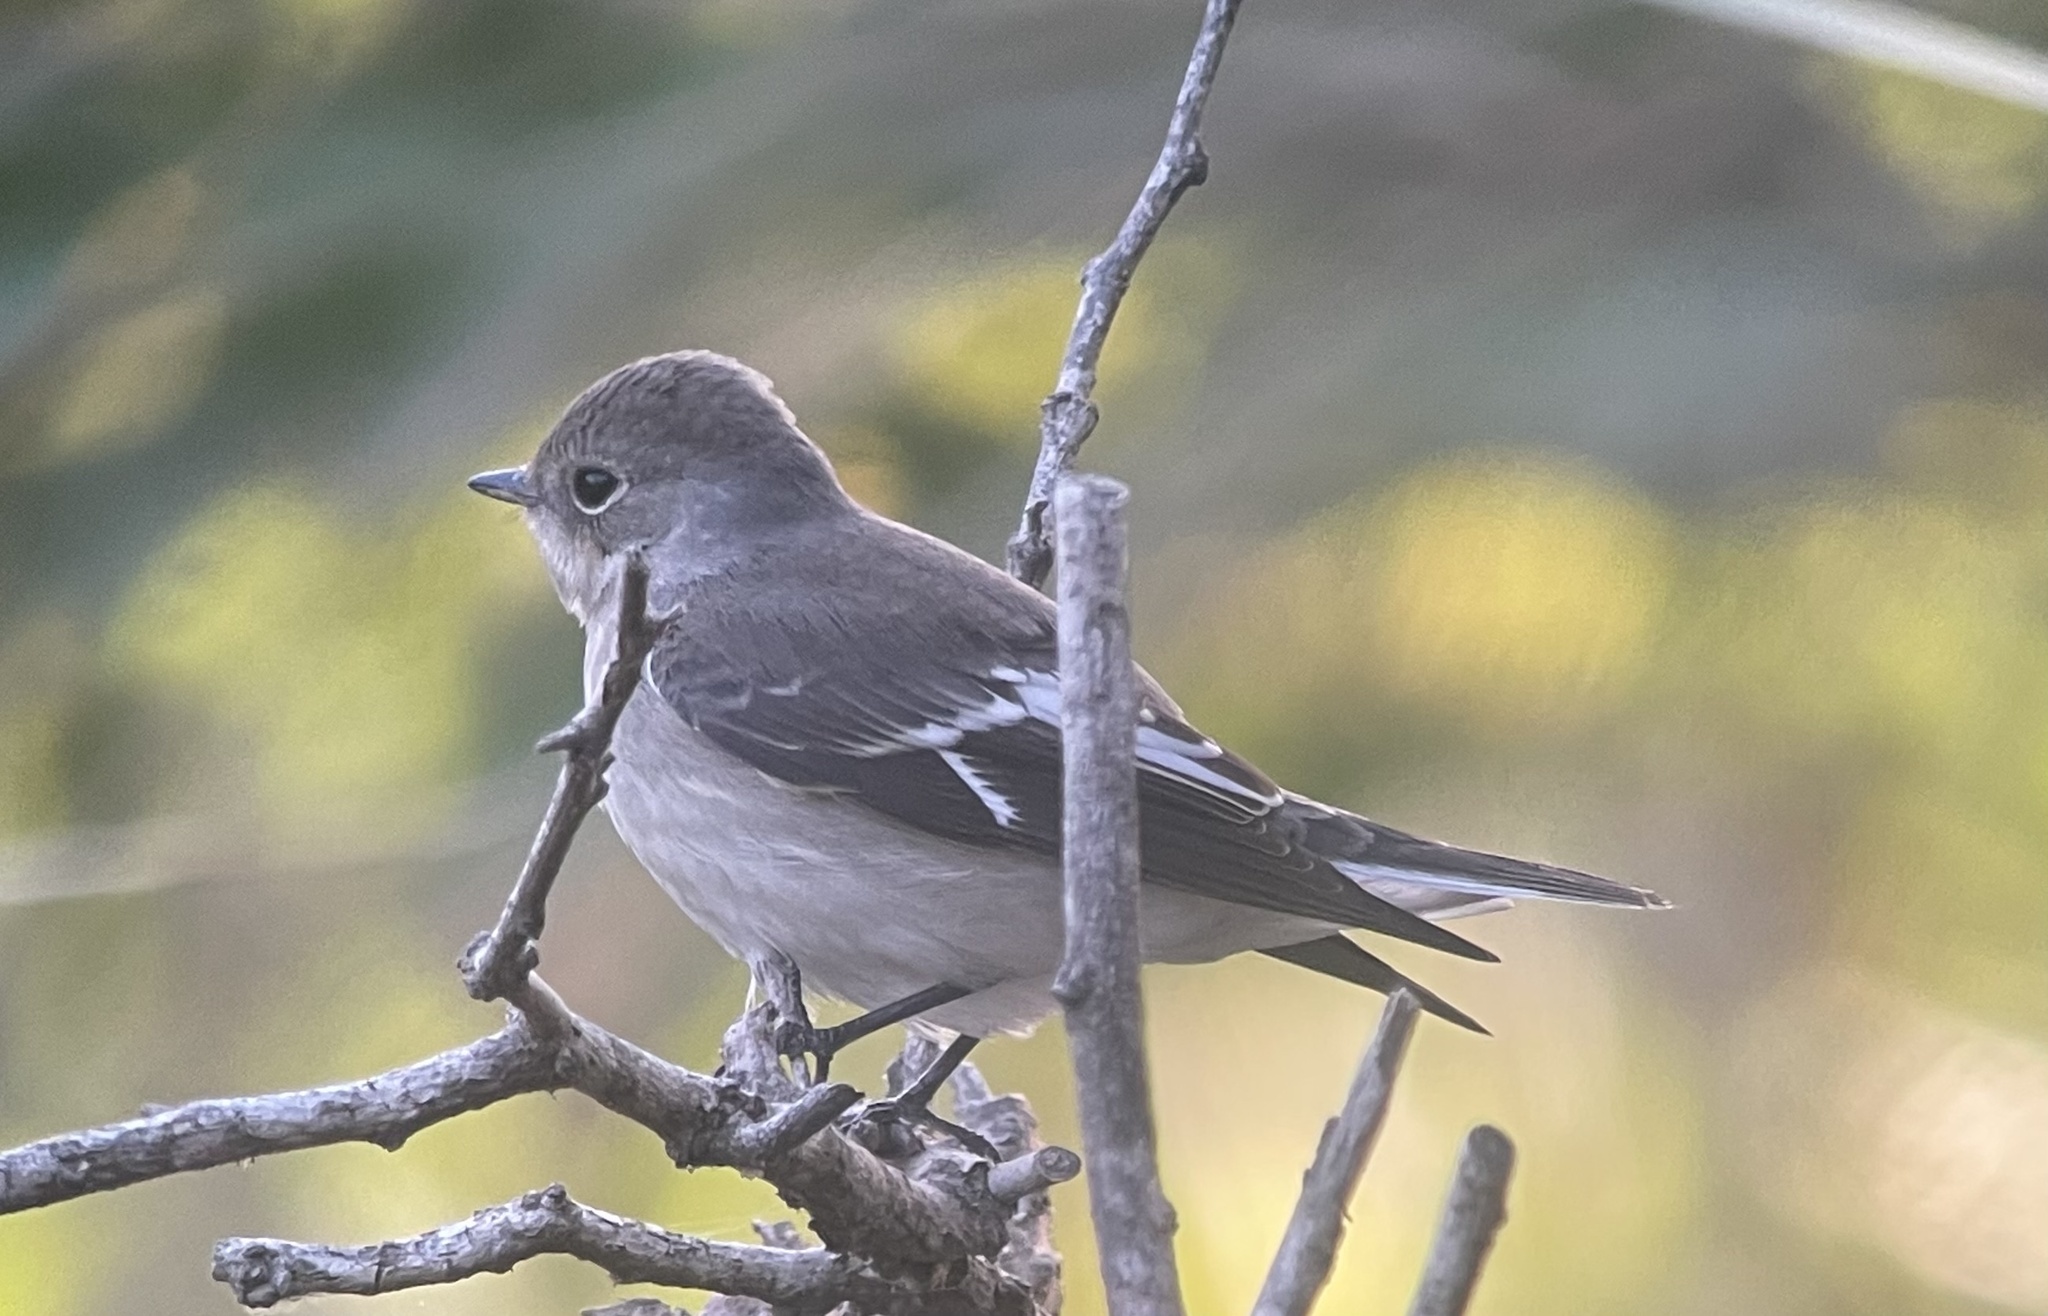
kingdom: Animalia
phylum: Chordata
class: Aves
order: Passeriformes
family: Muscicapidae
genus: Ficedula
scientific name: Ficedula albicollis
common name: Collared flycatcher
